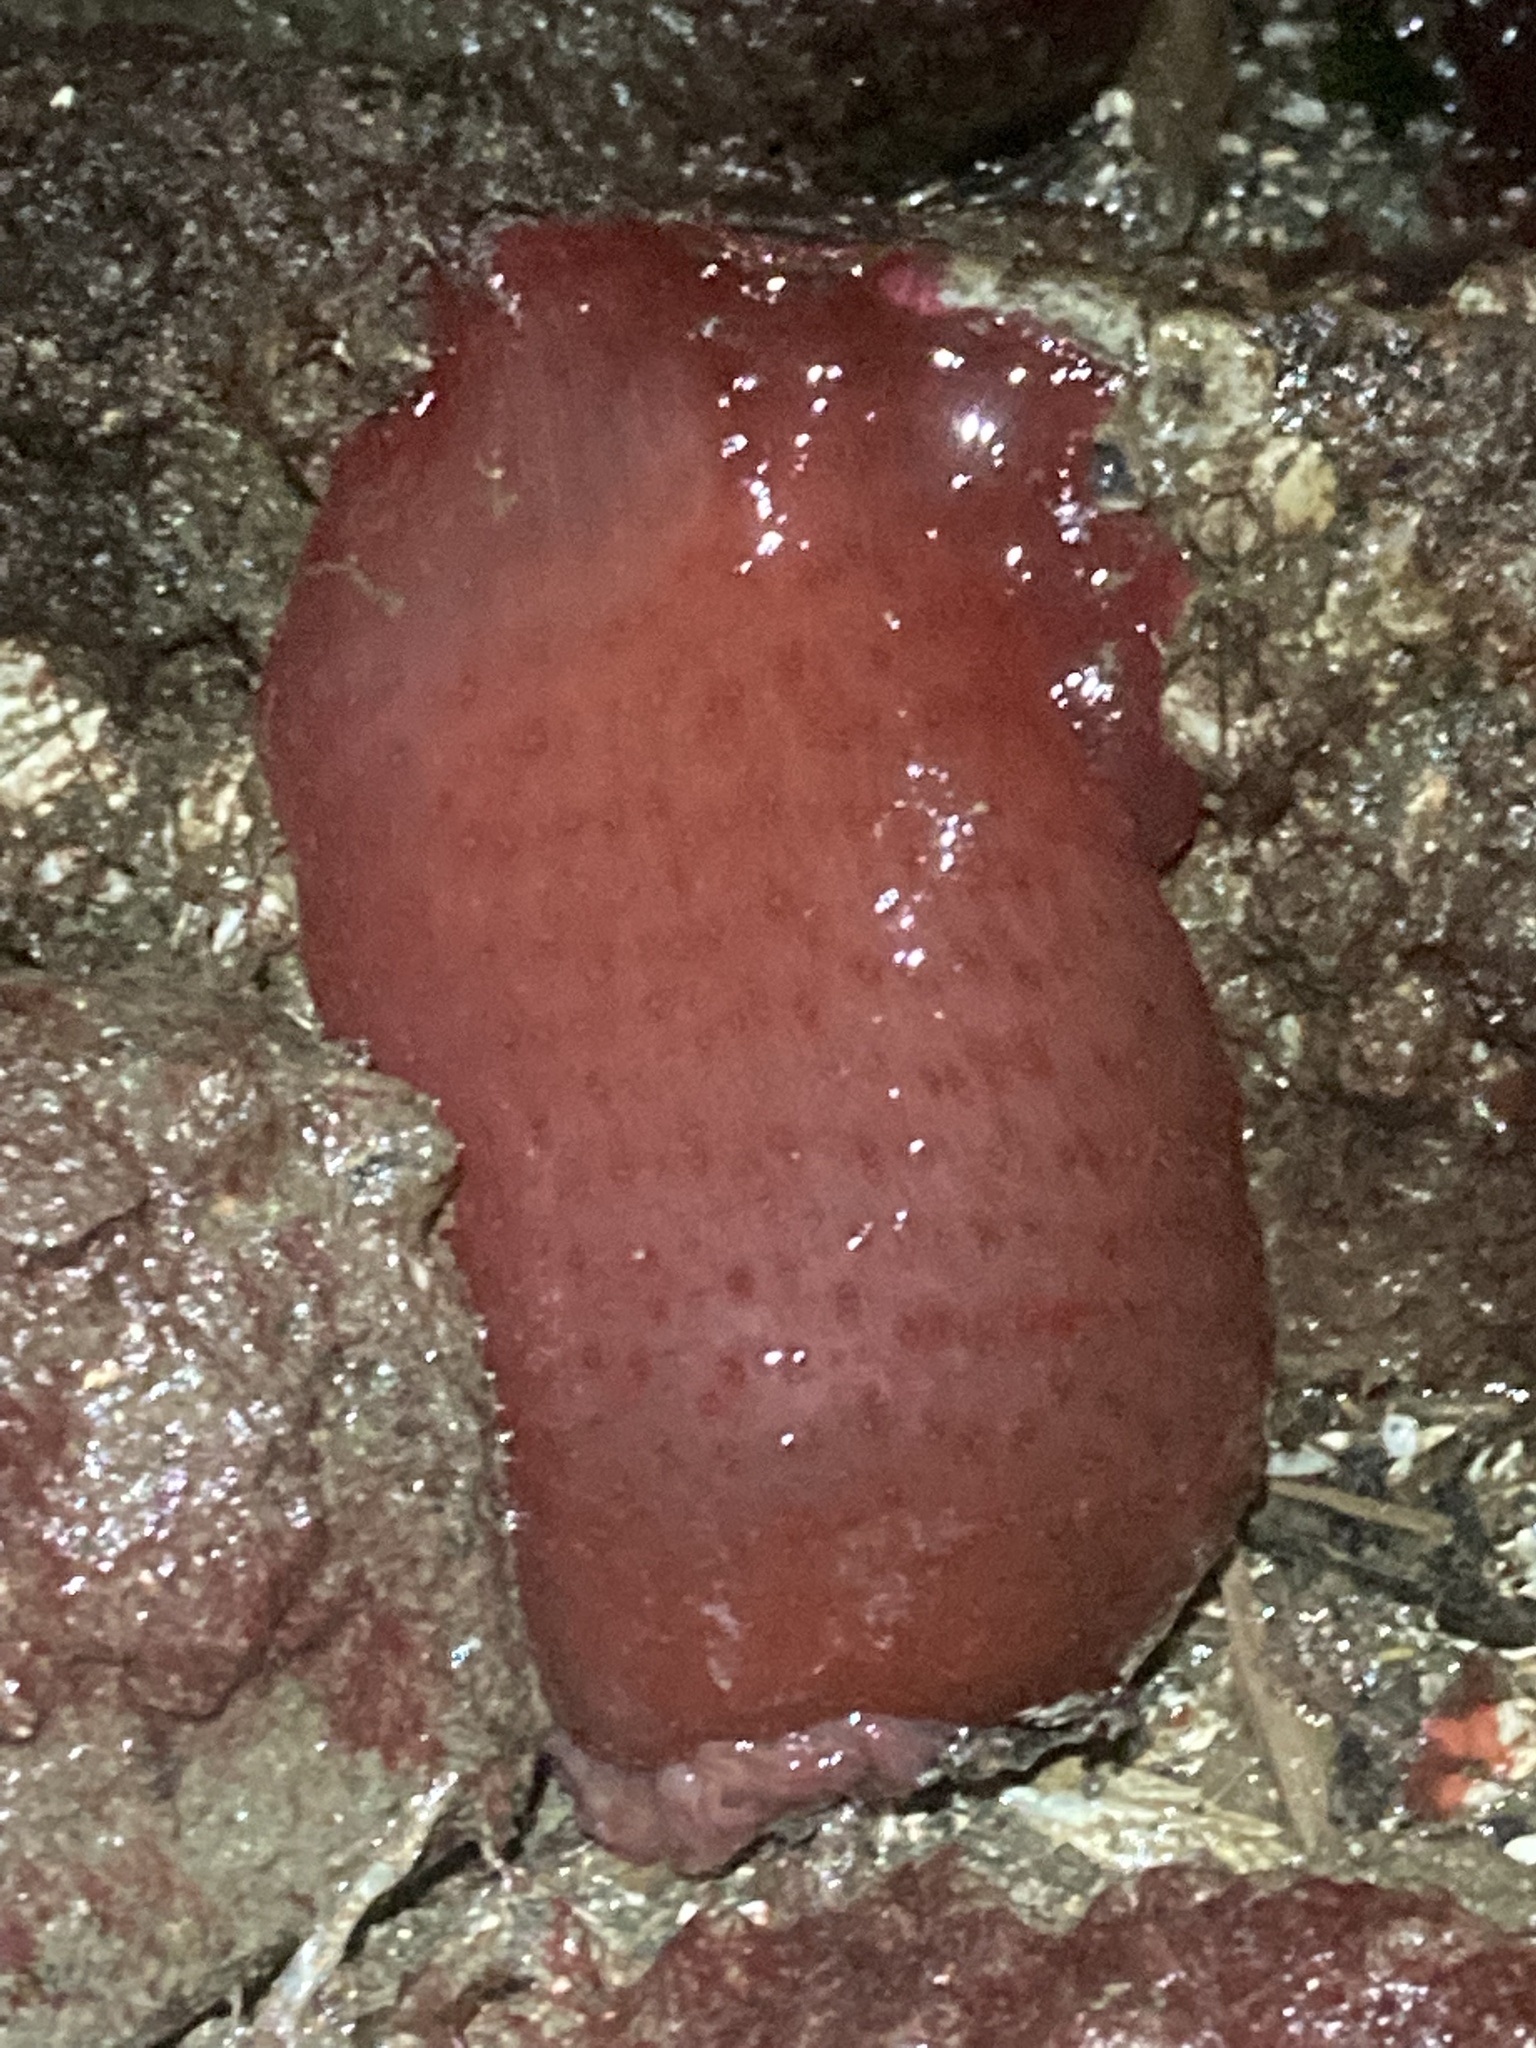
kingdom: Animalia
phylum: Cnidaria
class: Anthozoa
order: Actiniaria
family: Actiniidae
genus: Urticina
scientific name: Urticina grebelnyi
